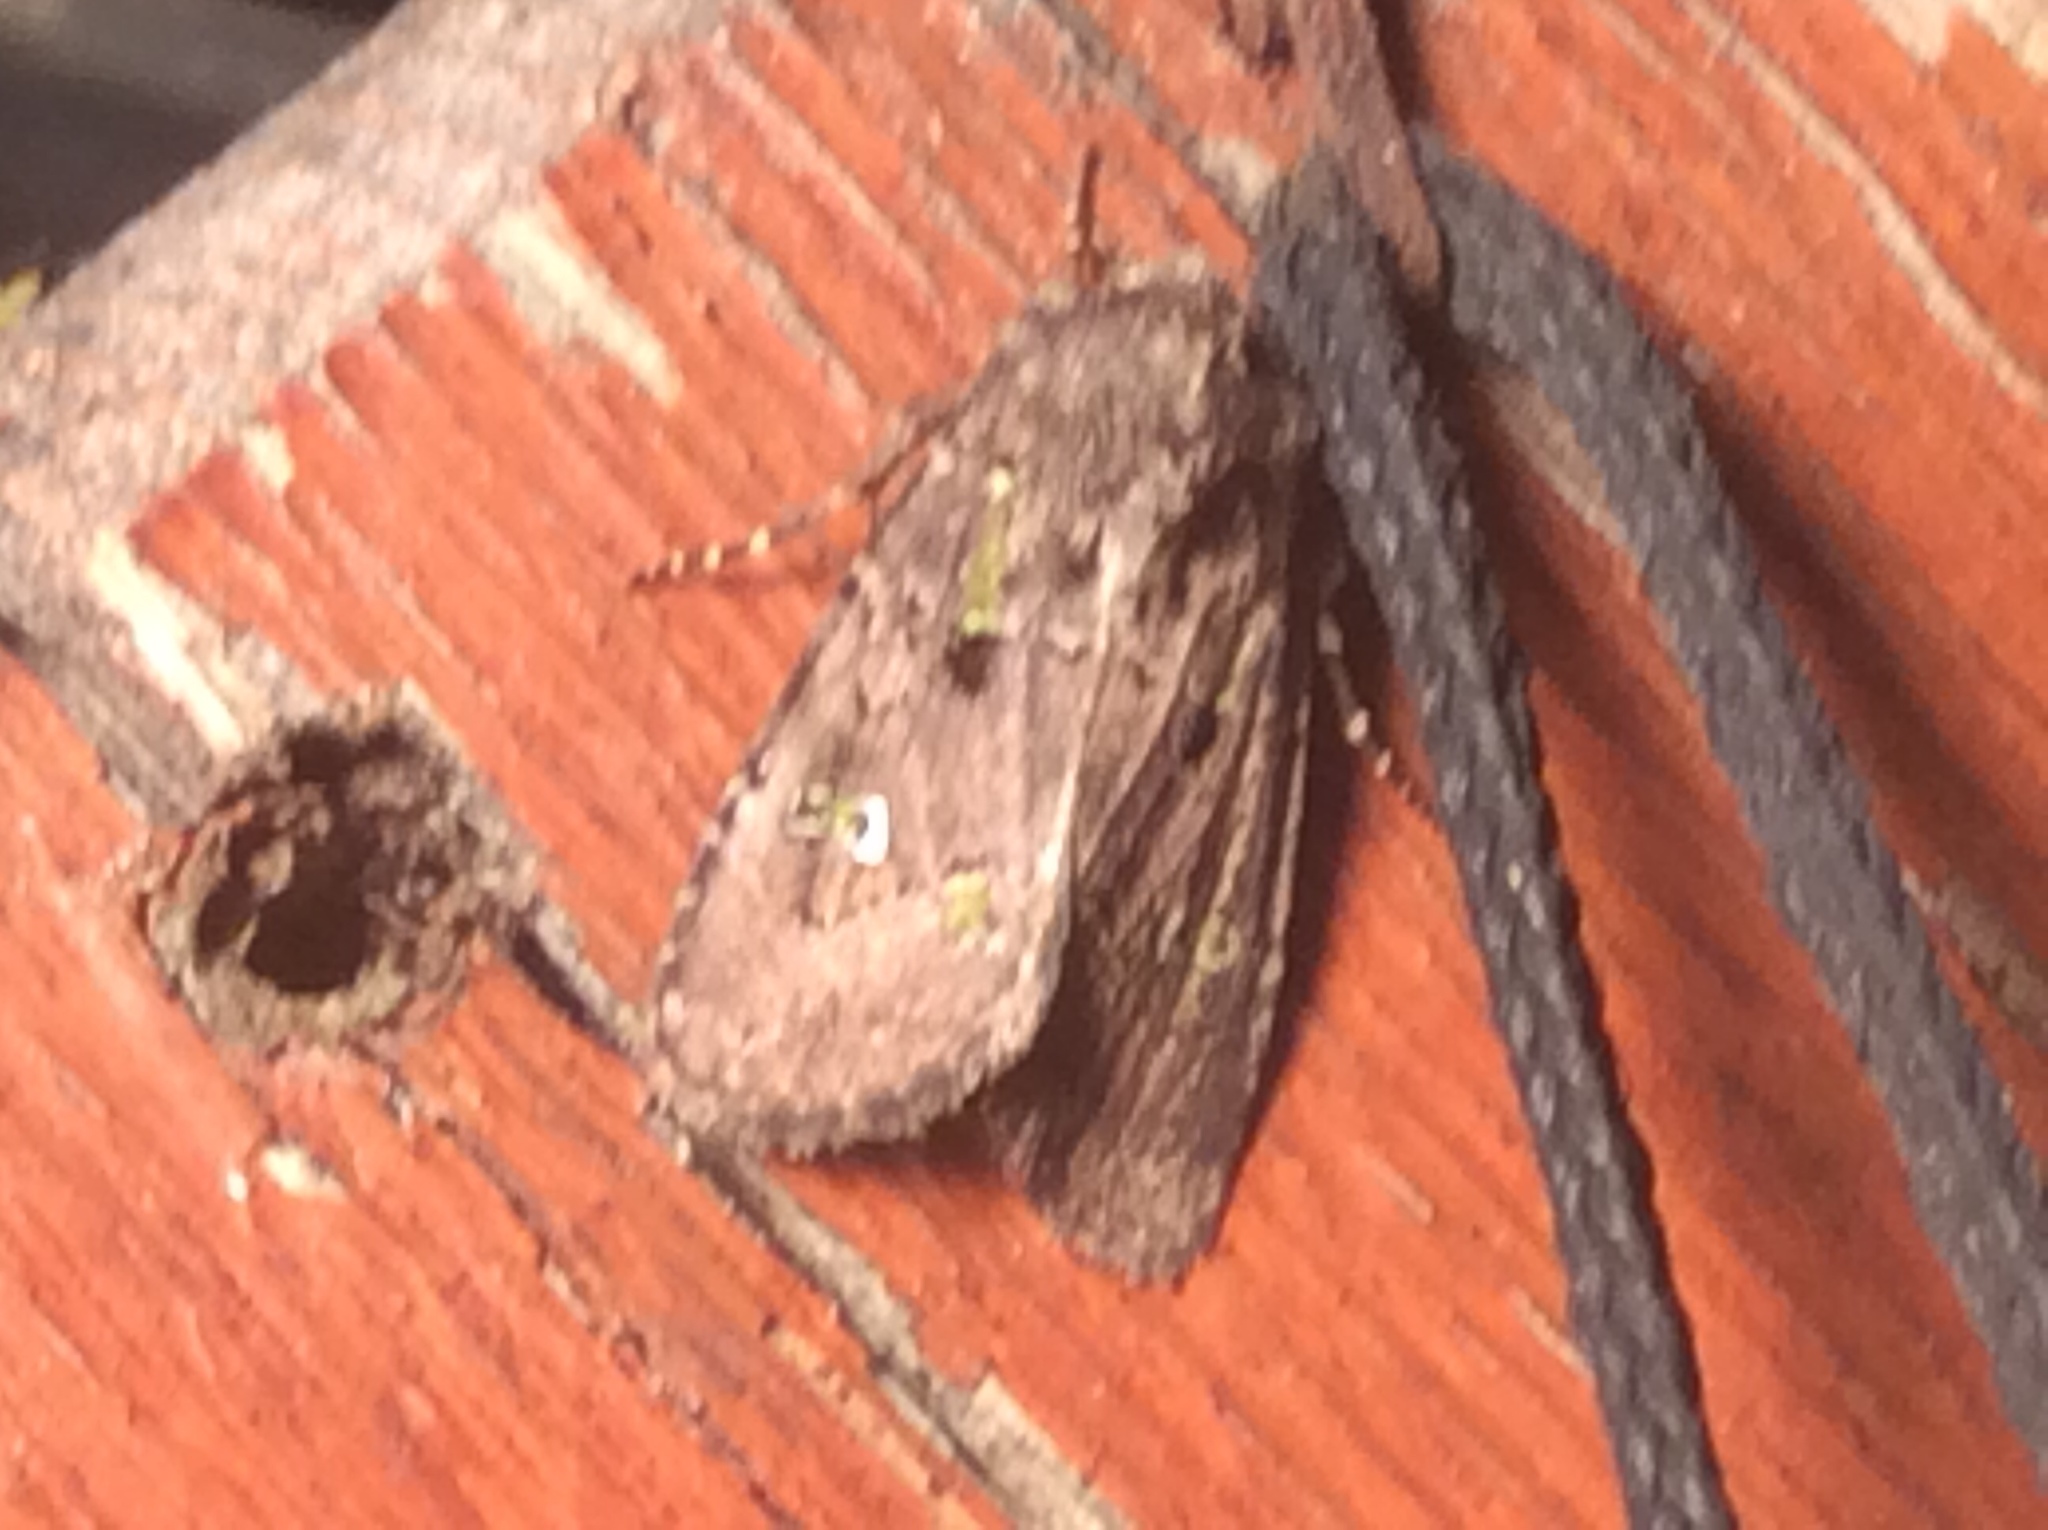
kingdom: Animalia
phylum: Arthropoda
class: Insecta
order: Lepidoptera
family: Noctuidae
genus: Lacinipolia
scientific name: Lacinipolia renigera
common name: Kidney-spotted minor
